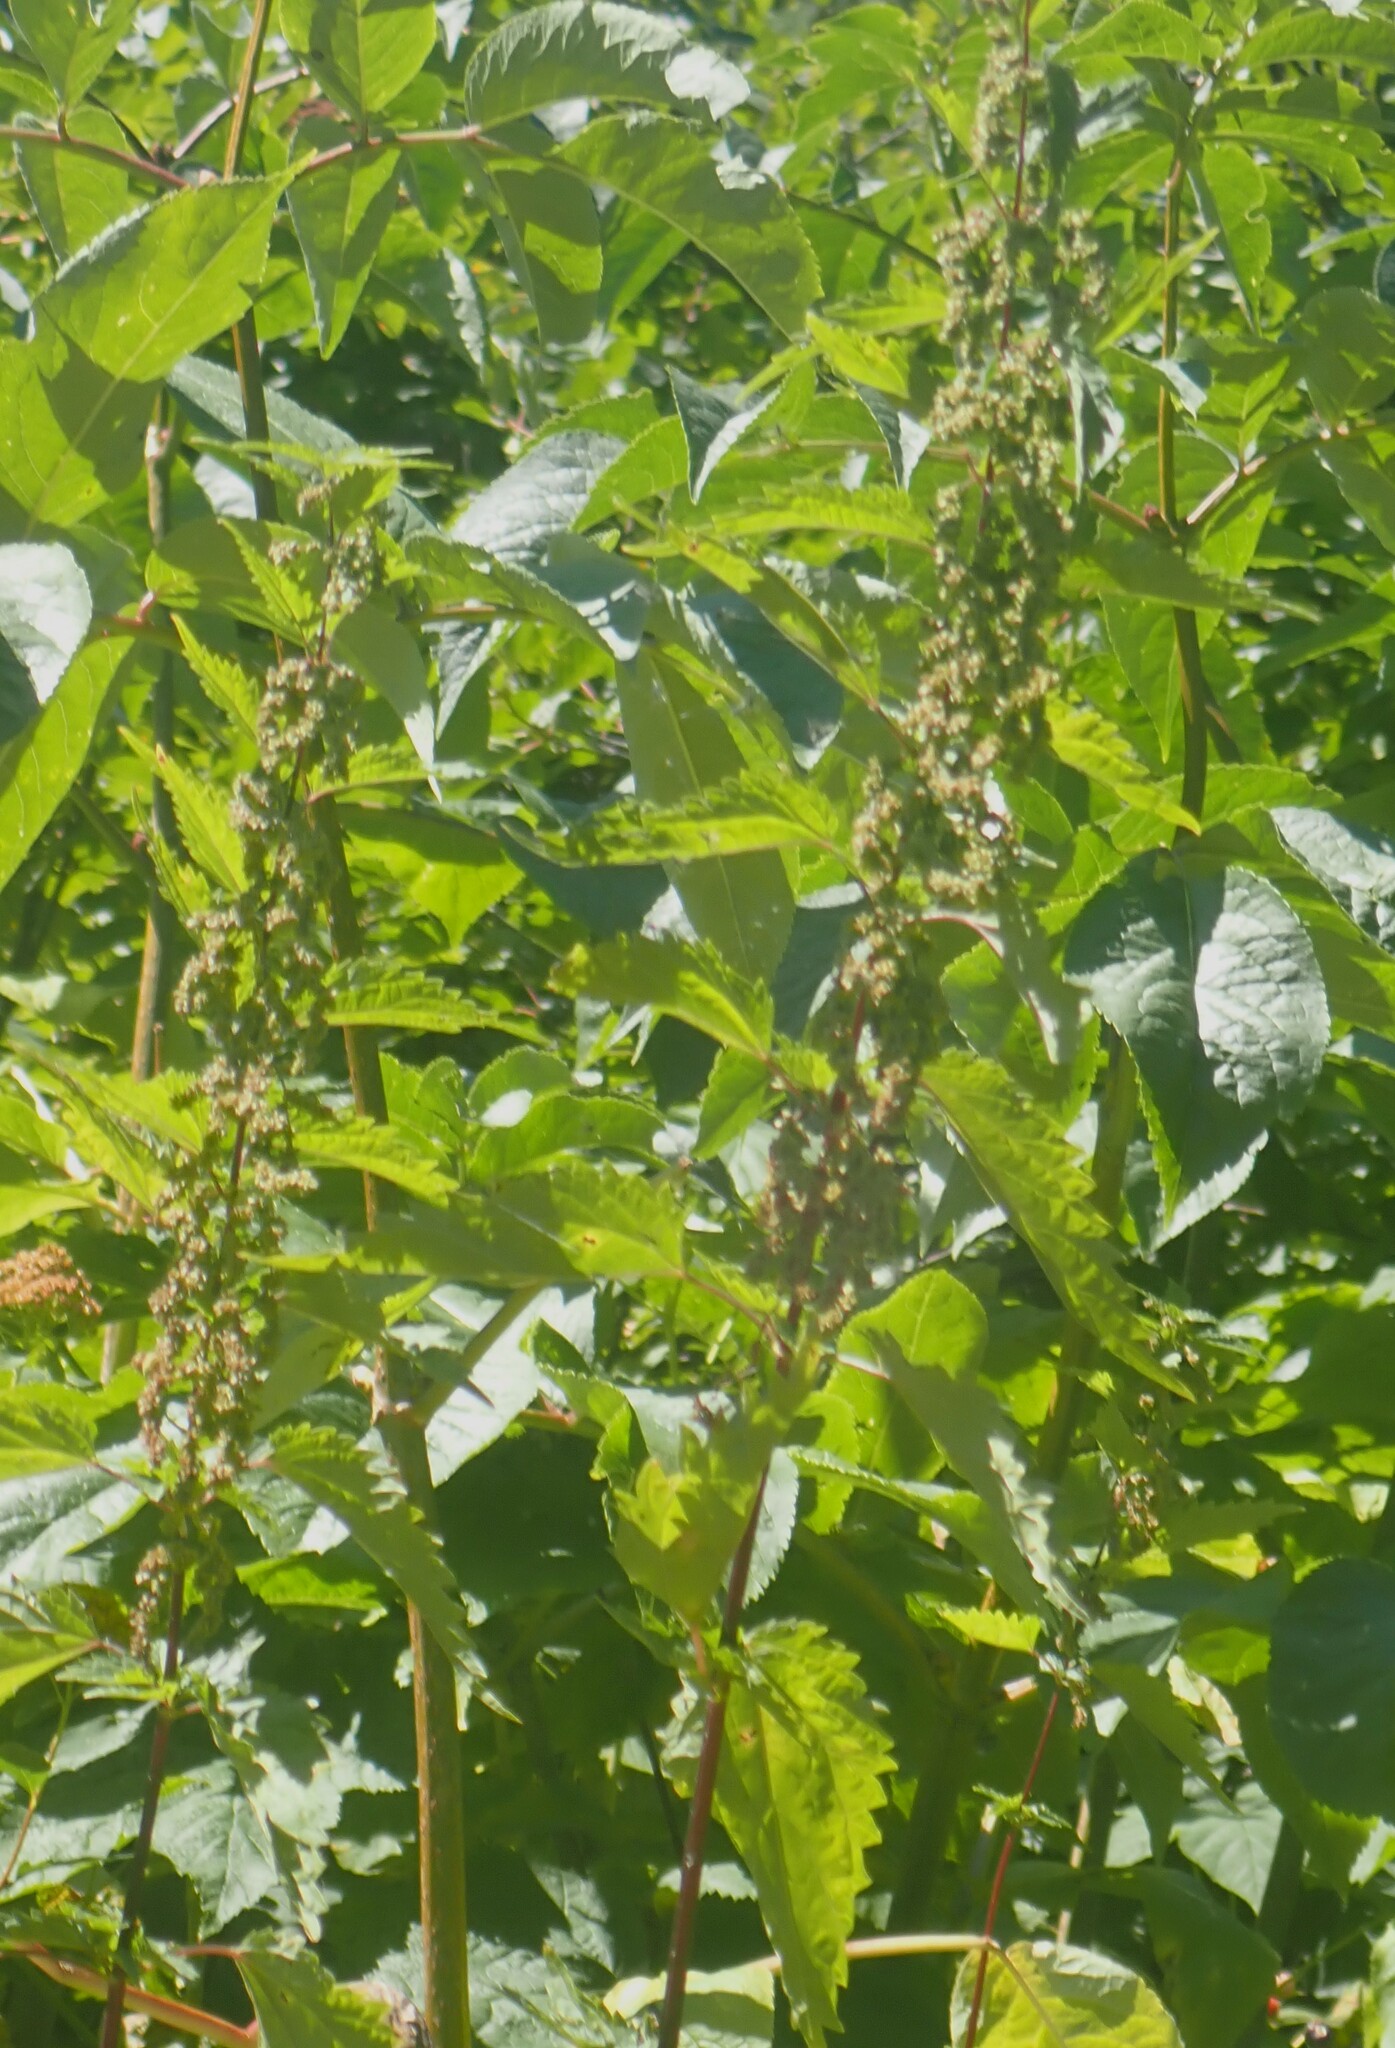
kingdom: Plantae
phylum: Tracheophyta
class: Magnoliopsida
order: Rosales
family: Urticaceae
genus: Urtica
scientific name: Urtica gracilis
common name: Slender stinging nettle
